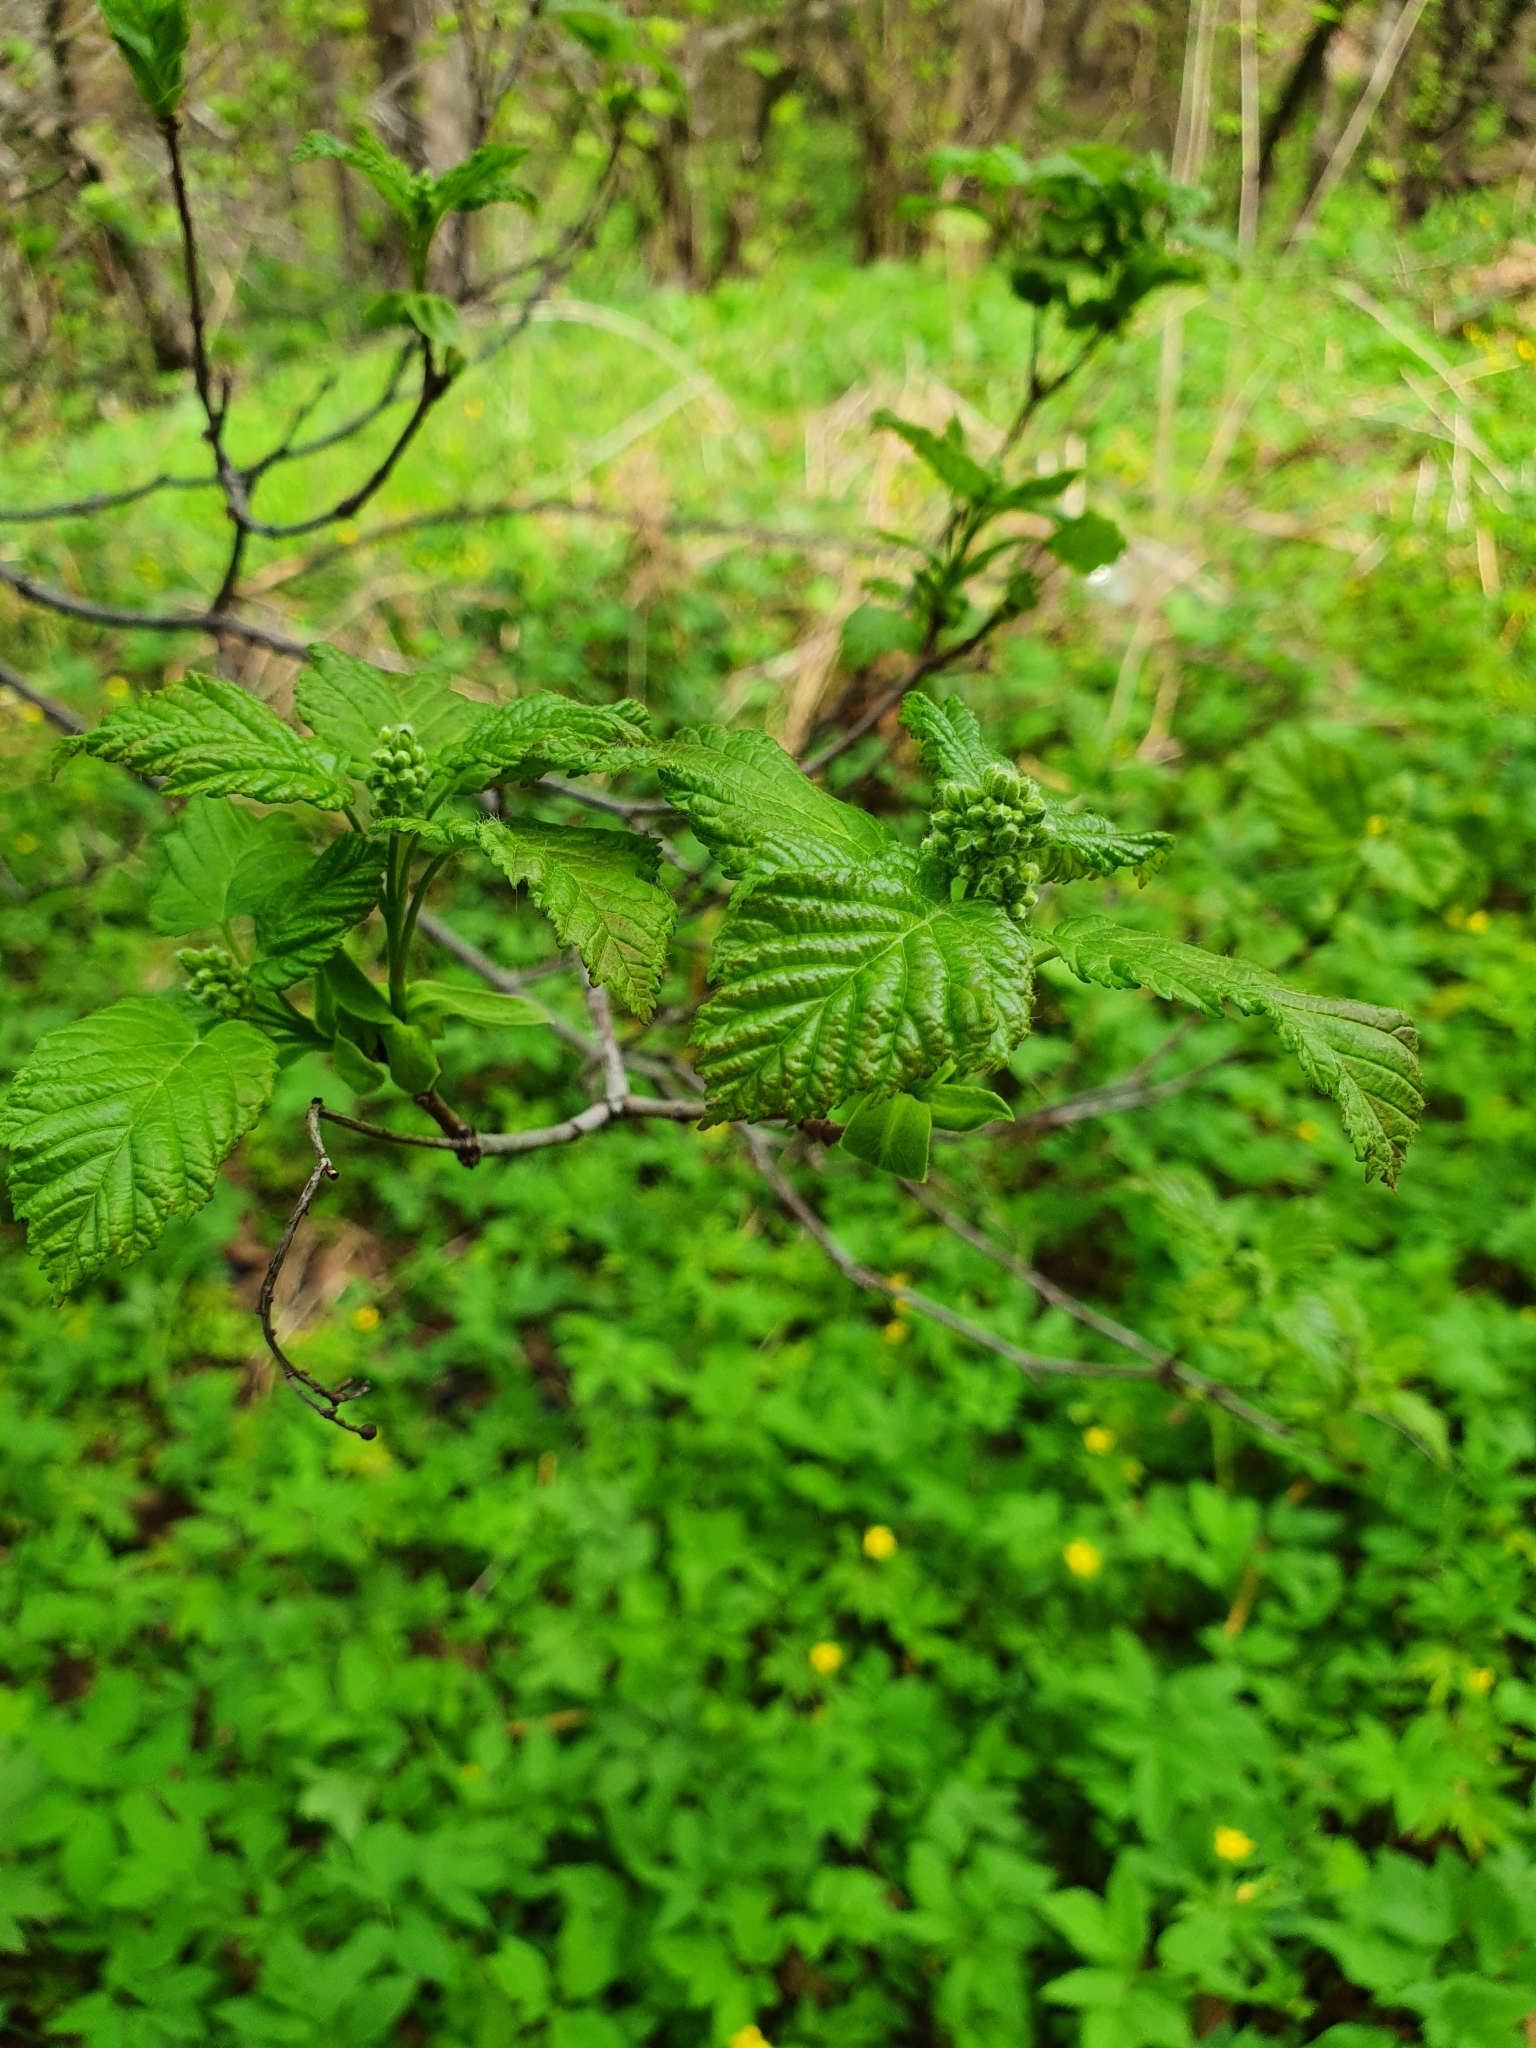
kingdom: Plantae
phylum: Tracheophyta
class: Magnoliopsida
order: Sapindales
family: Sapindaceae
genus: Acer
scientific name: Acer tataricum
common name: Tartar maple
